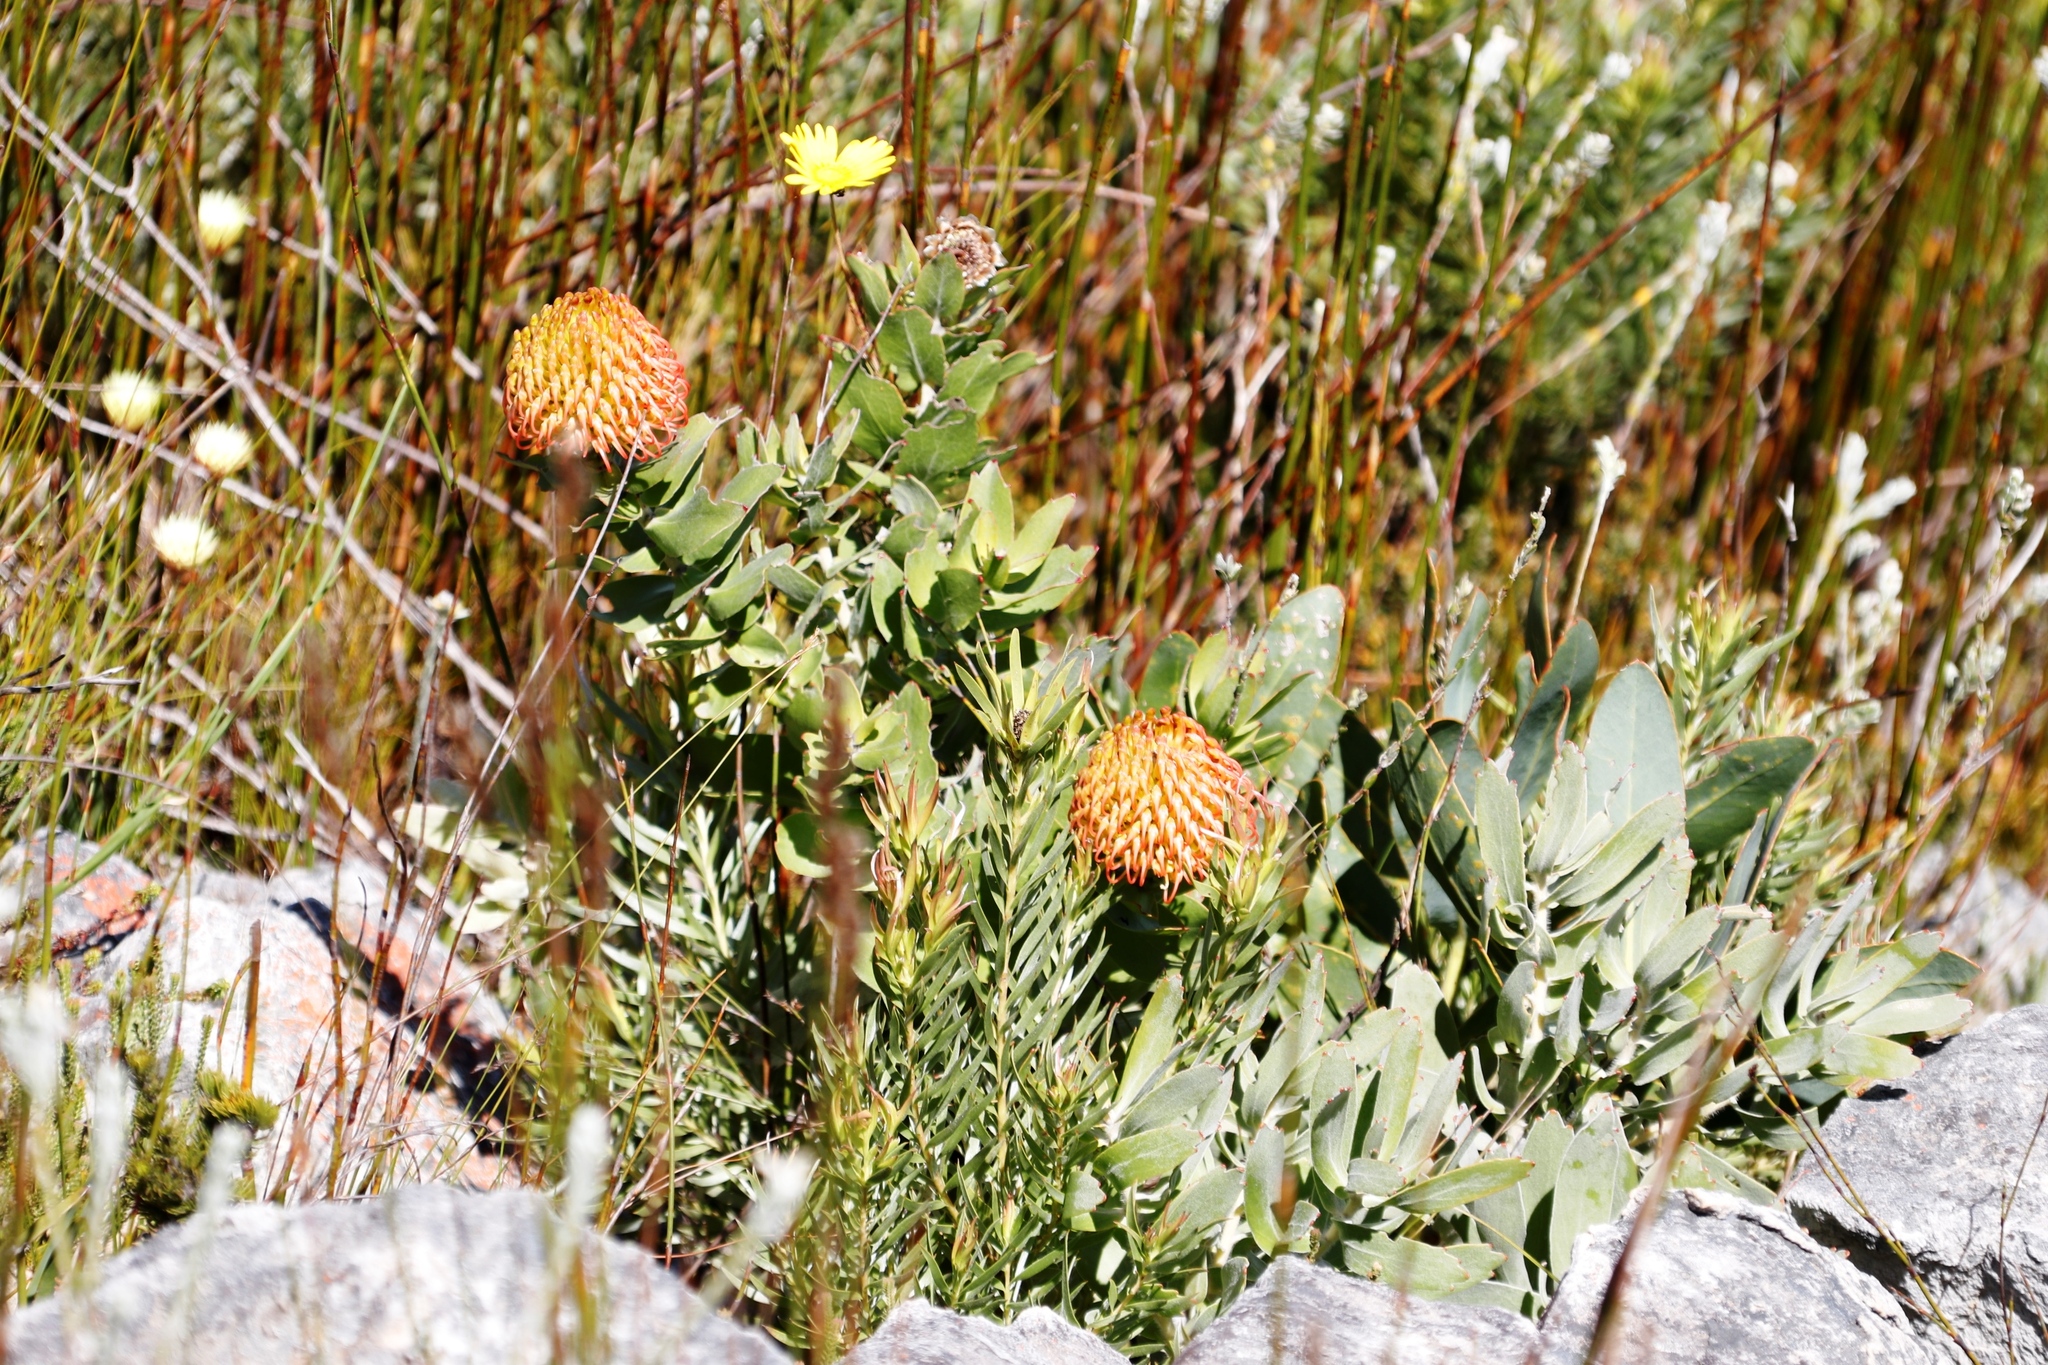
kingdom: Plantae
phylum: Tracheophyta
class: Magnoliopsida
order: Proteales
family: Proteaceae
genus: Leucospermum
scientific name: Leucospermum cordifolium
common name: Red pincushion-protea
